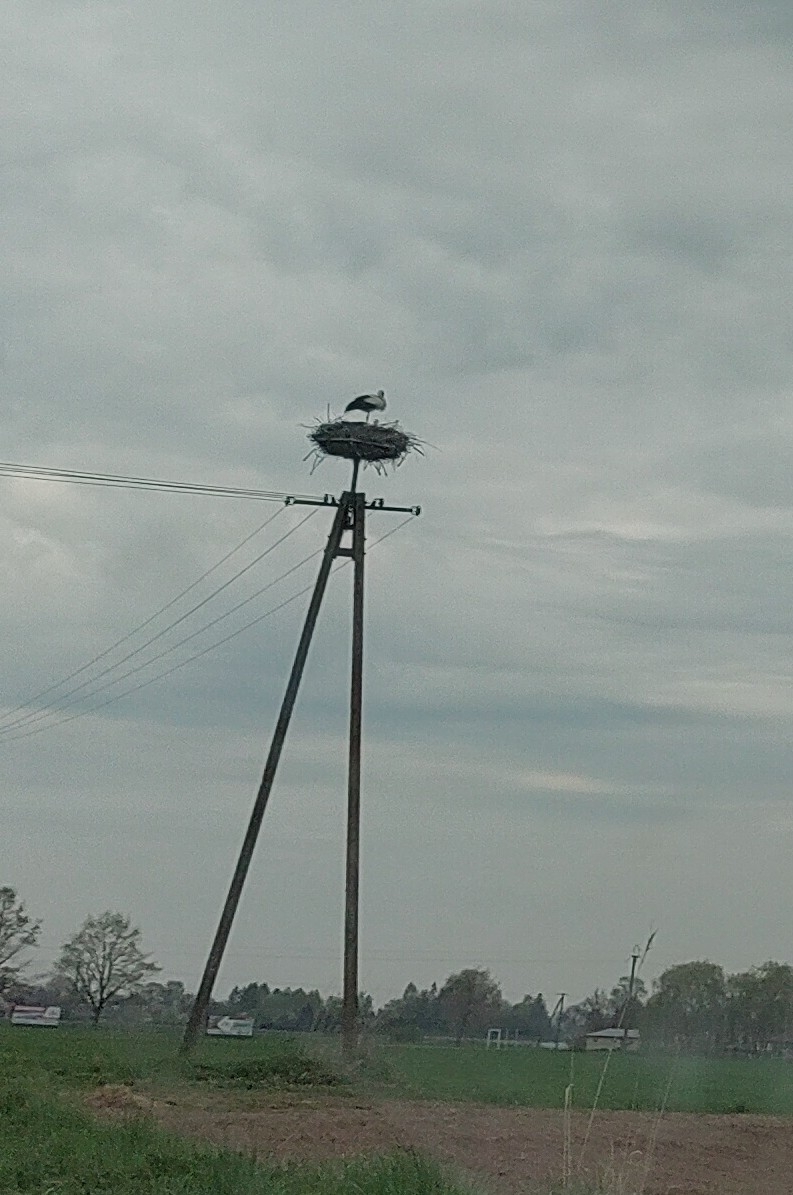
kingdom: Animalia
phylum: Chordata
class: Aves
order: Ciconiiformes
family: Ciconiidae
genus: Ciconia
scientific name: Ciconia ciconia
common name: White stork
